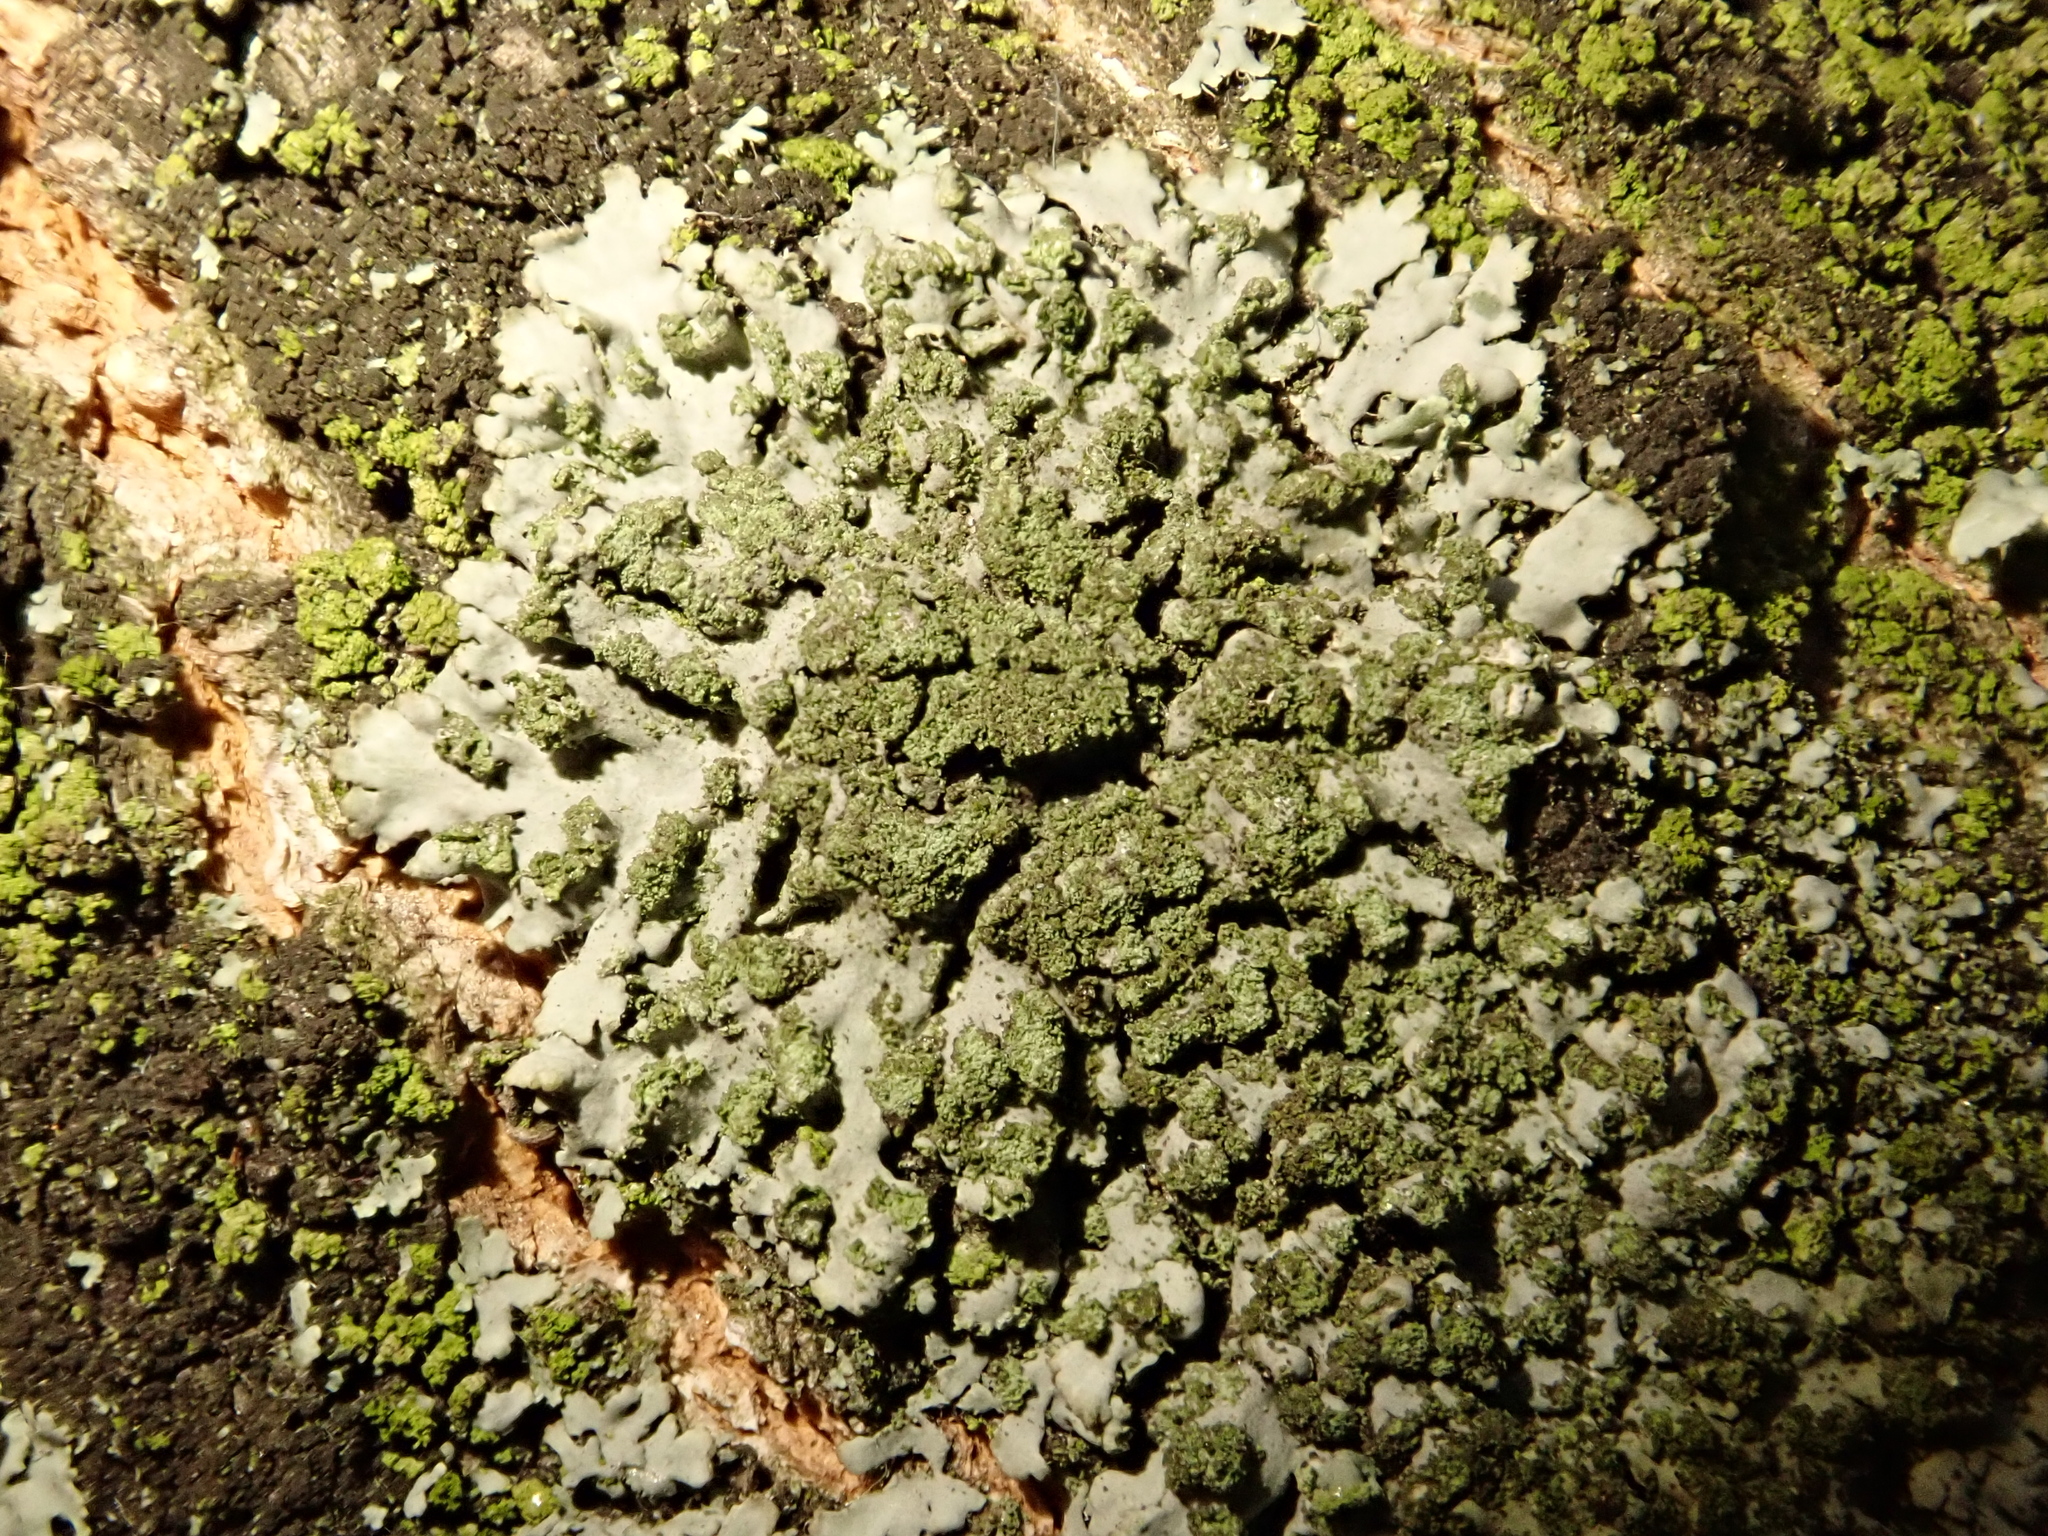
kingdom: Fungi
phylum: Ascomycota
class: Lecanoromycetes
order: Caliciales
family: Physciaceae
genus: Phaeophyscia
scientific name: Phaeophyscia orbicularis
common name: Mealy shadow lichen
